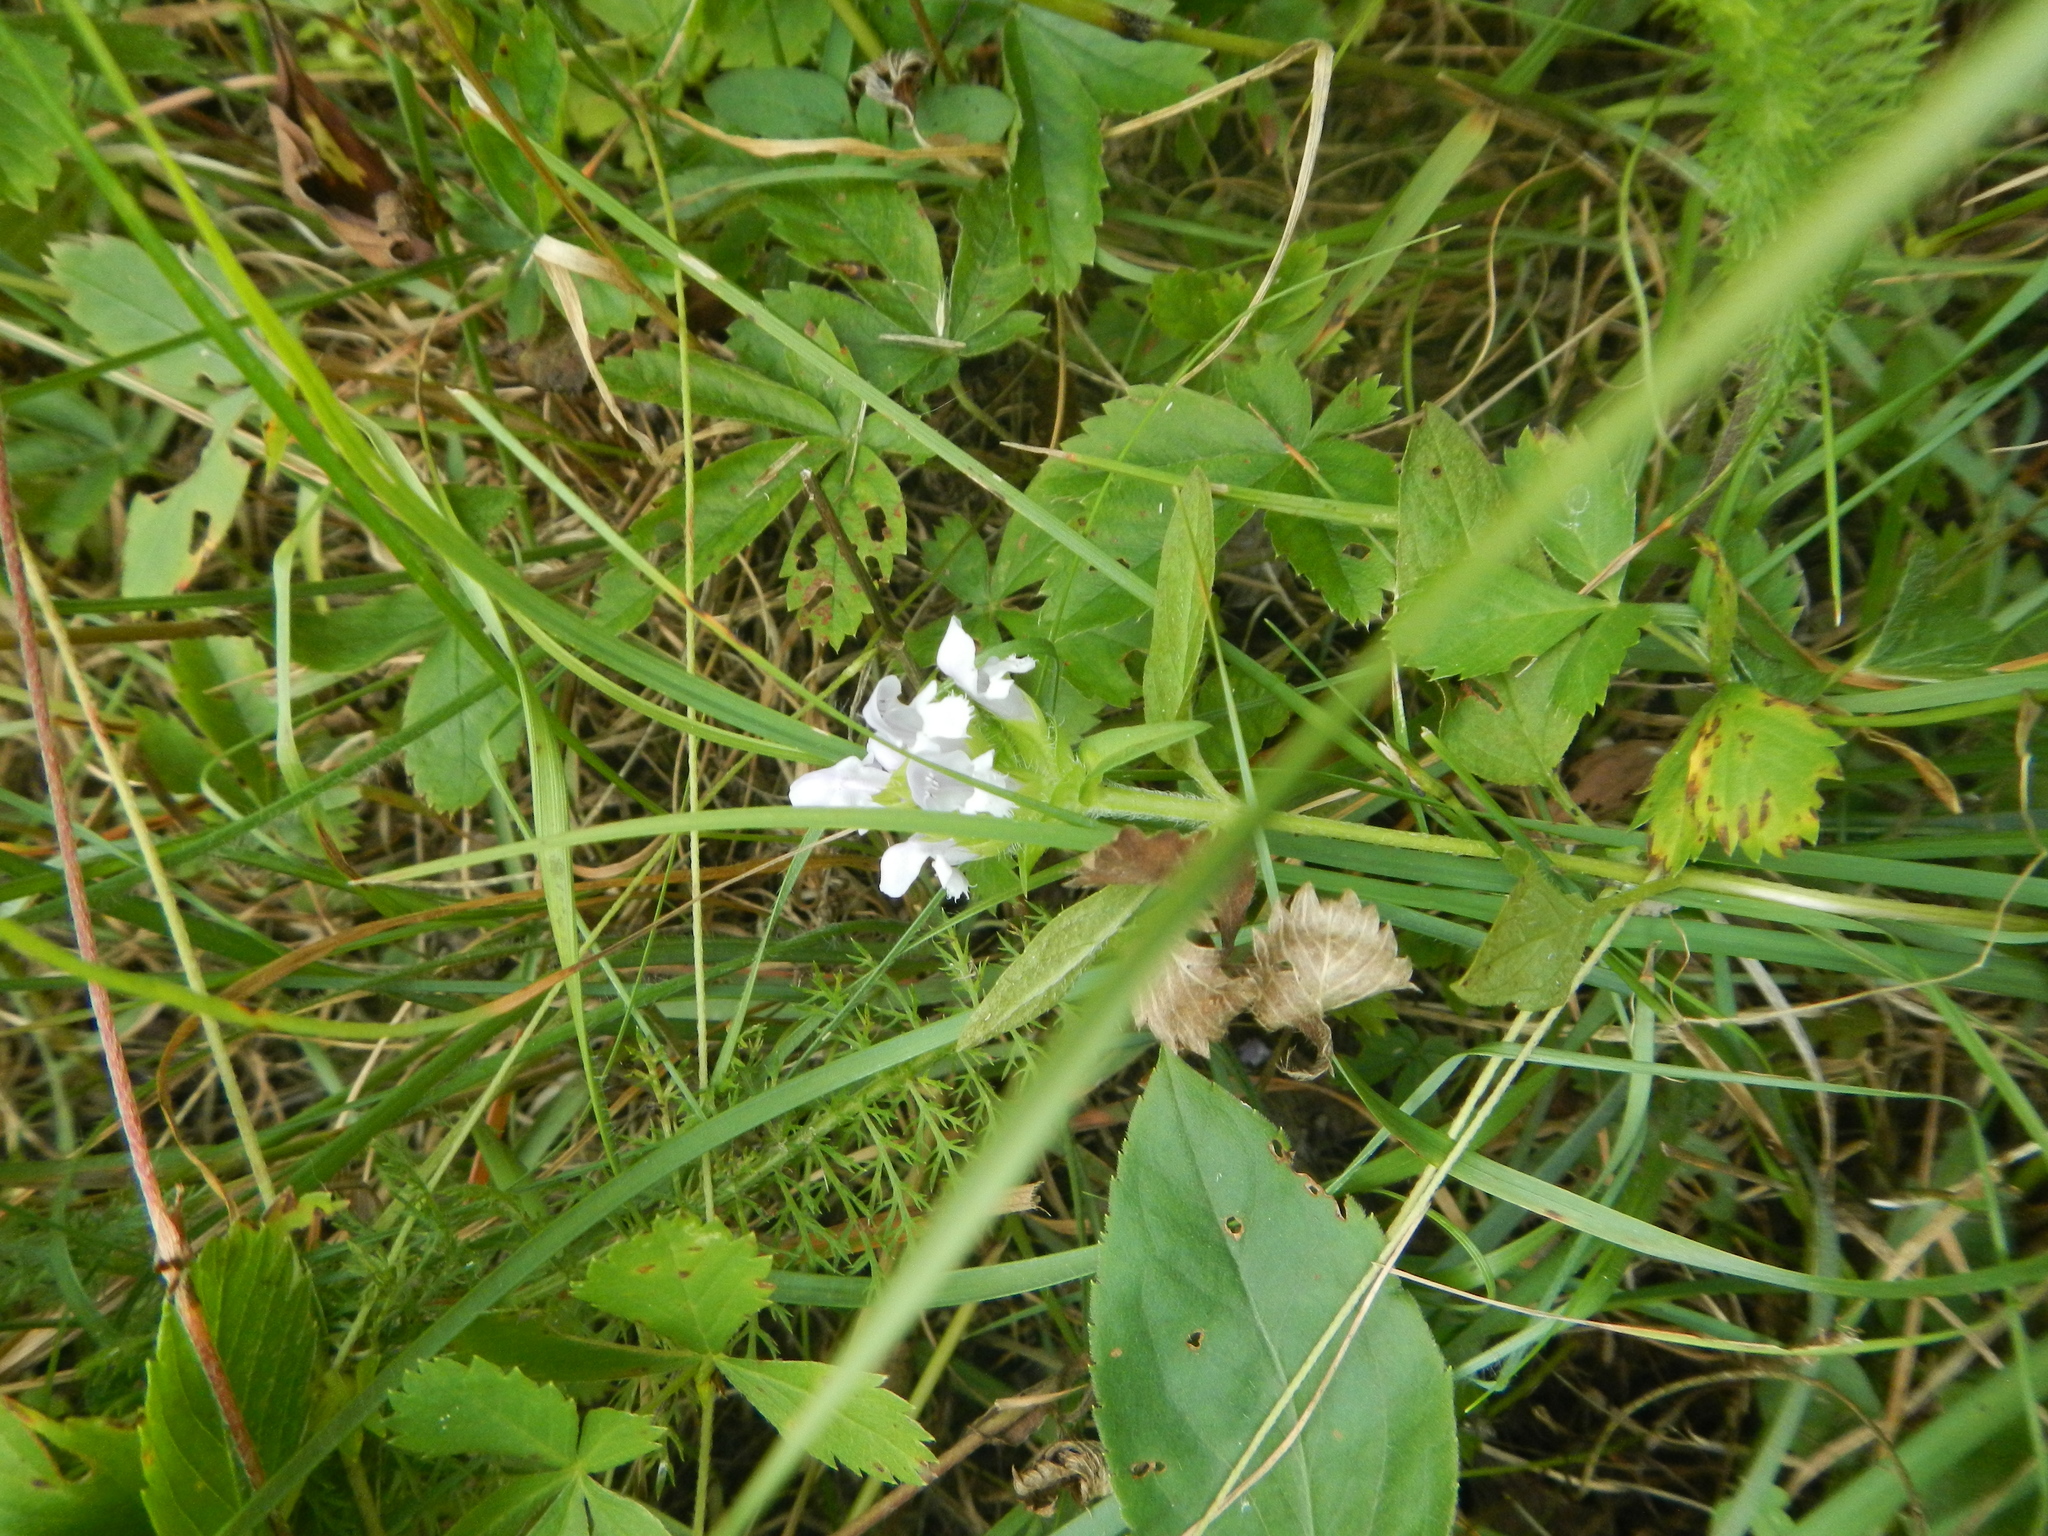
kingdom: Plantae
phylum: Tracheophyta
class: Magnoliopsida
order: Lamiales
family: Lamiaceae
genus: Prunella
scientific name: Prunella vulgaris
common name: Heal-all
